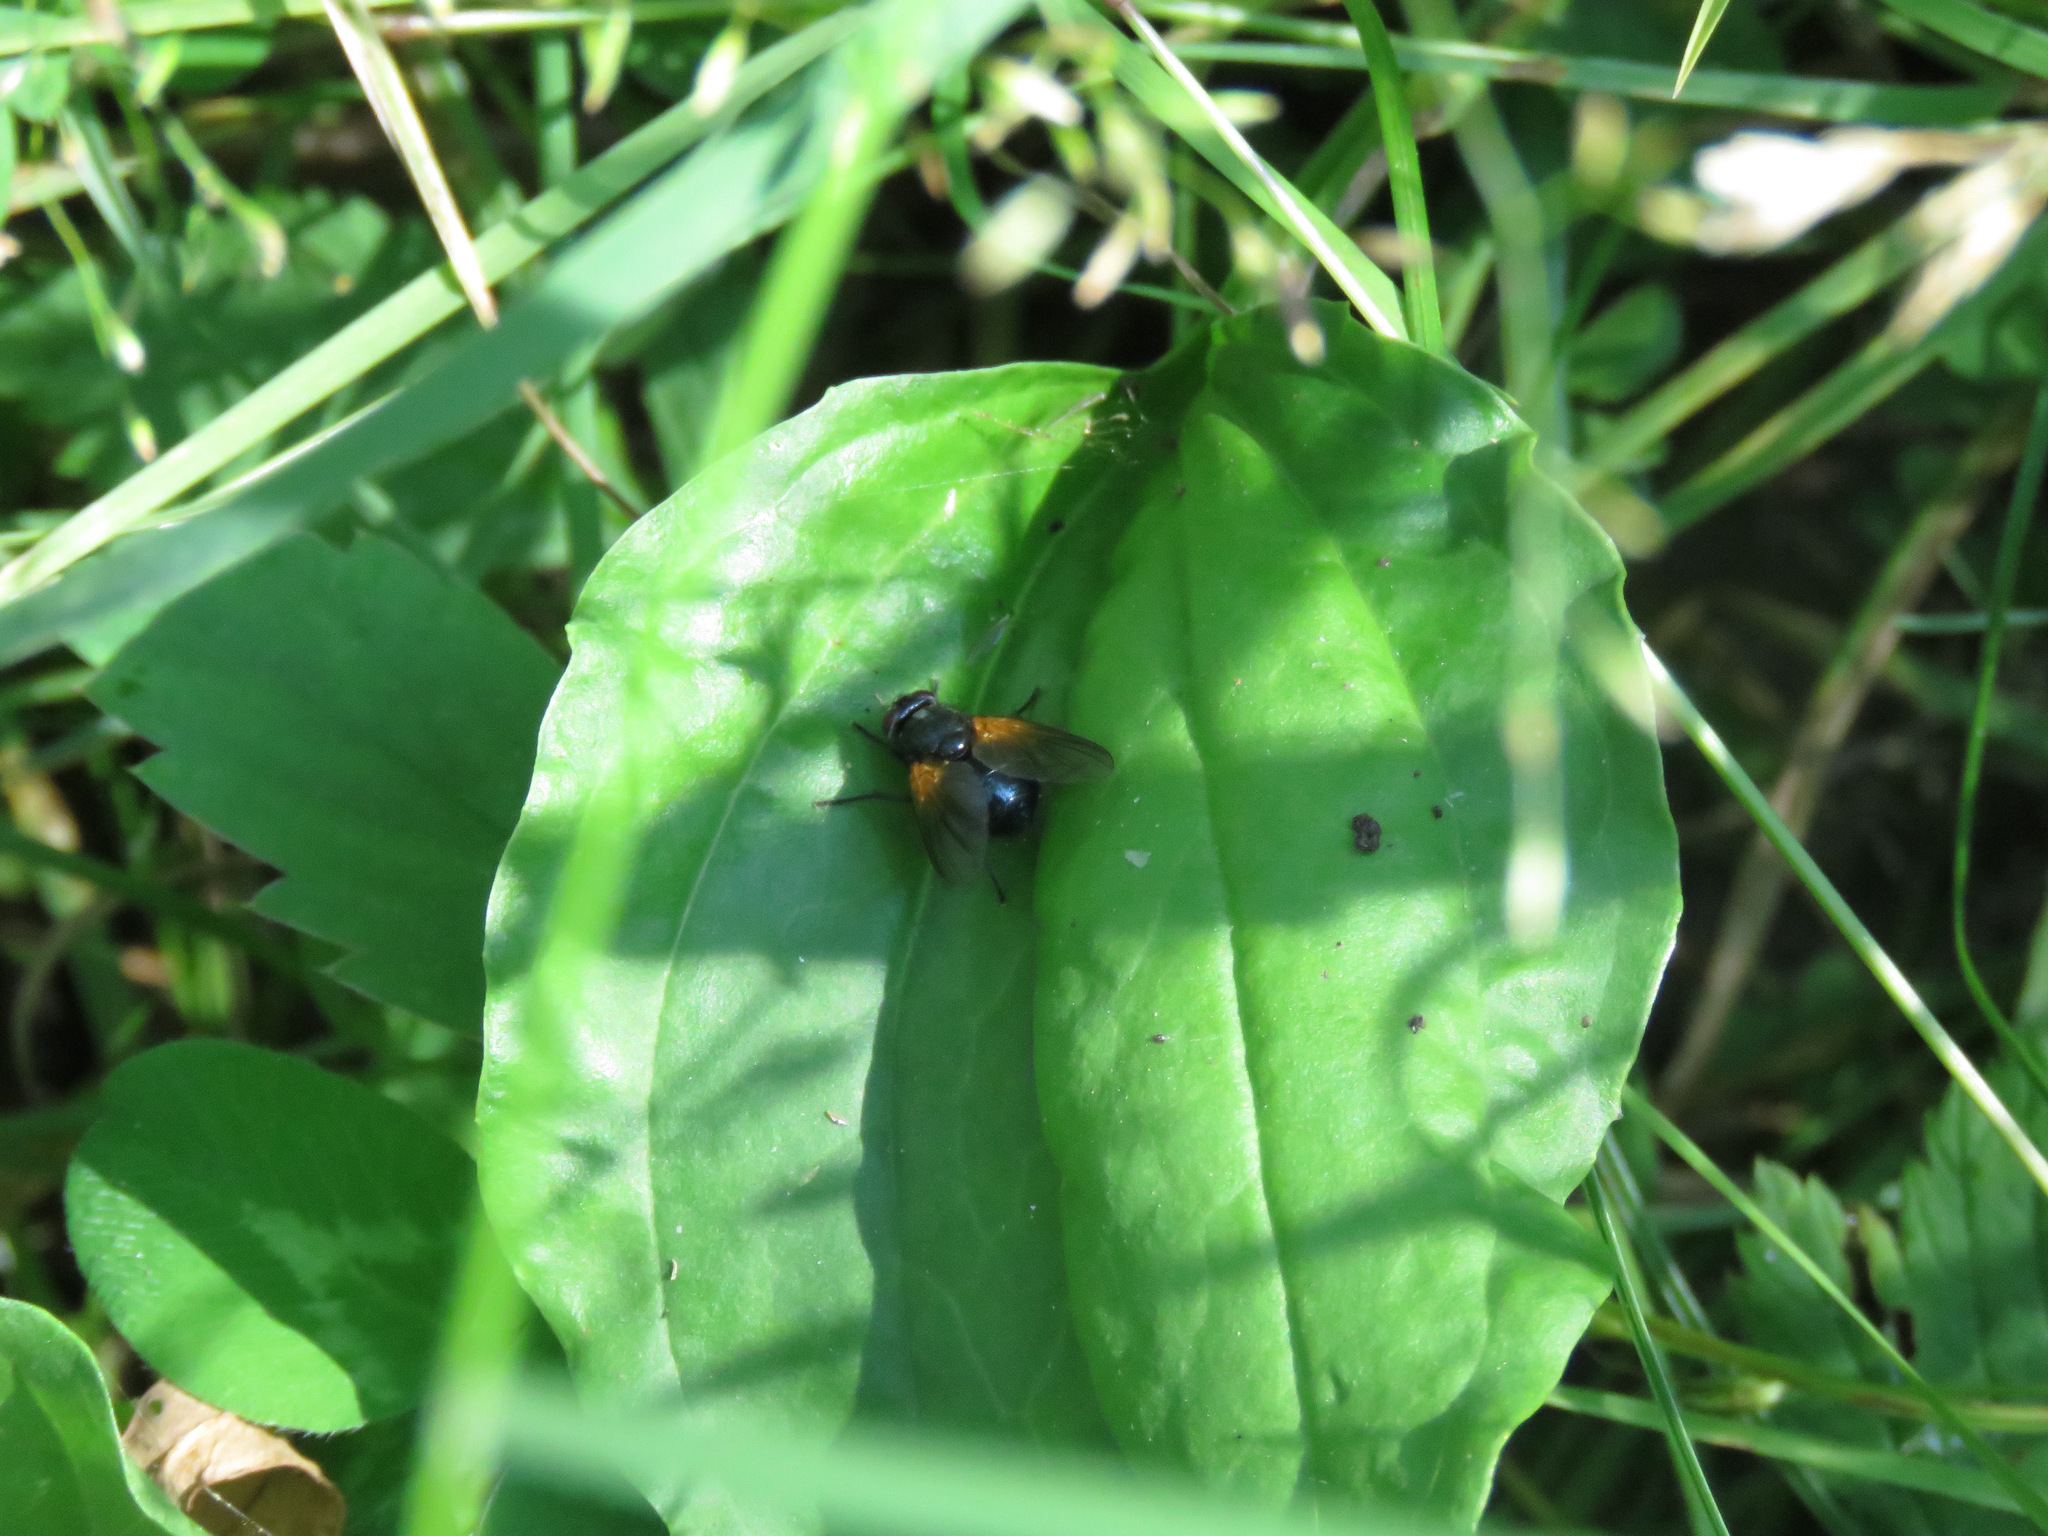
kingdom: Animalia
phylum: Arthropoda
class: Insecta
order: Diptera
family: Muscidae
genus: Mesembrina
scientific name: Mesembrina latreillii
